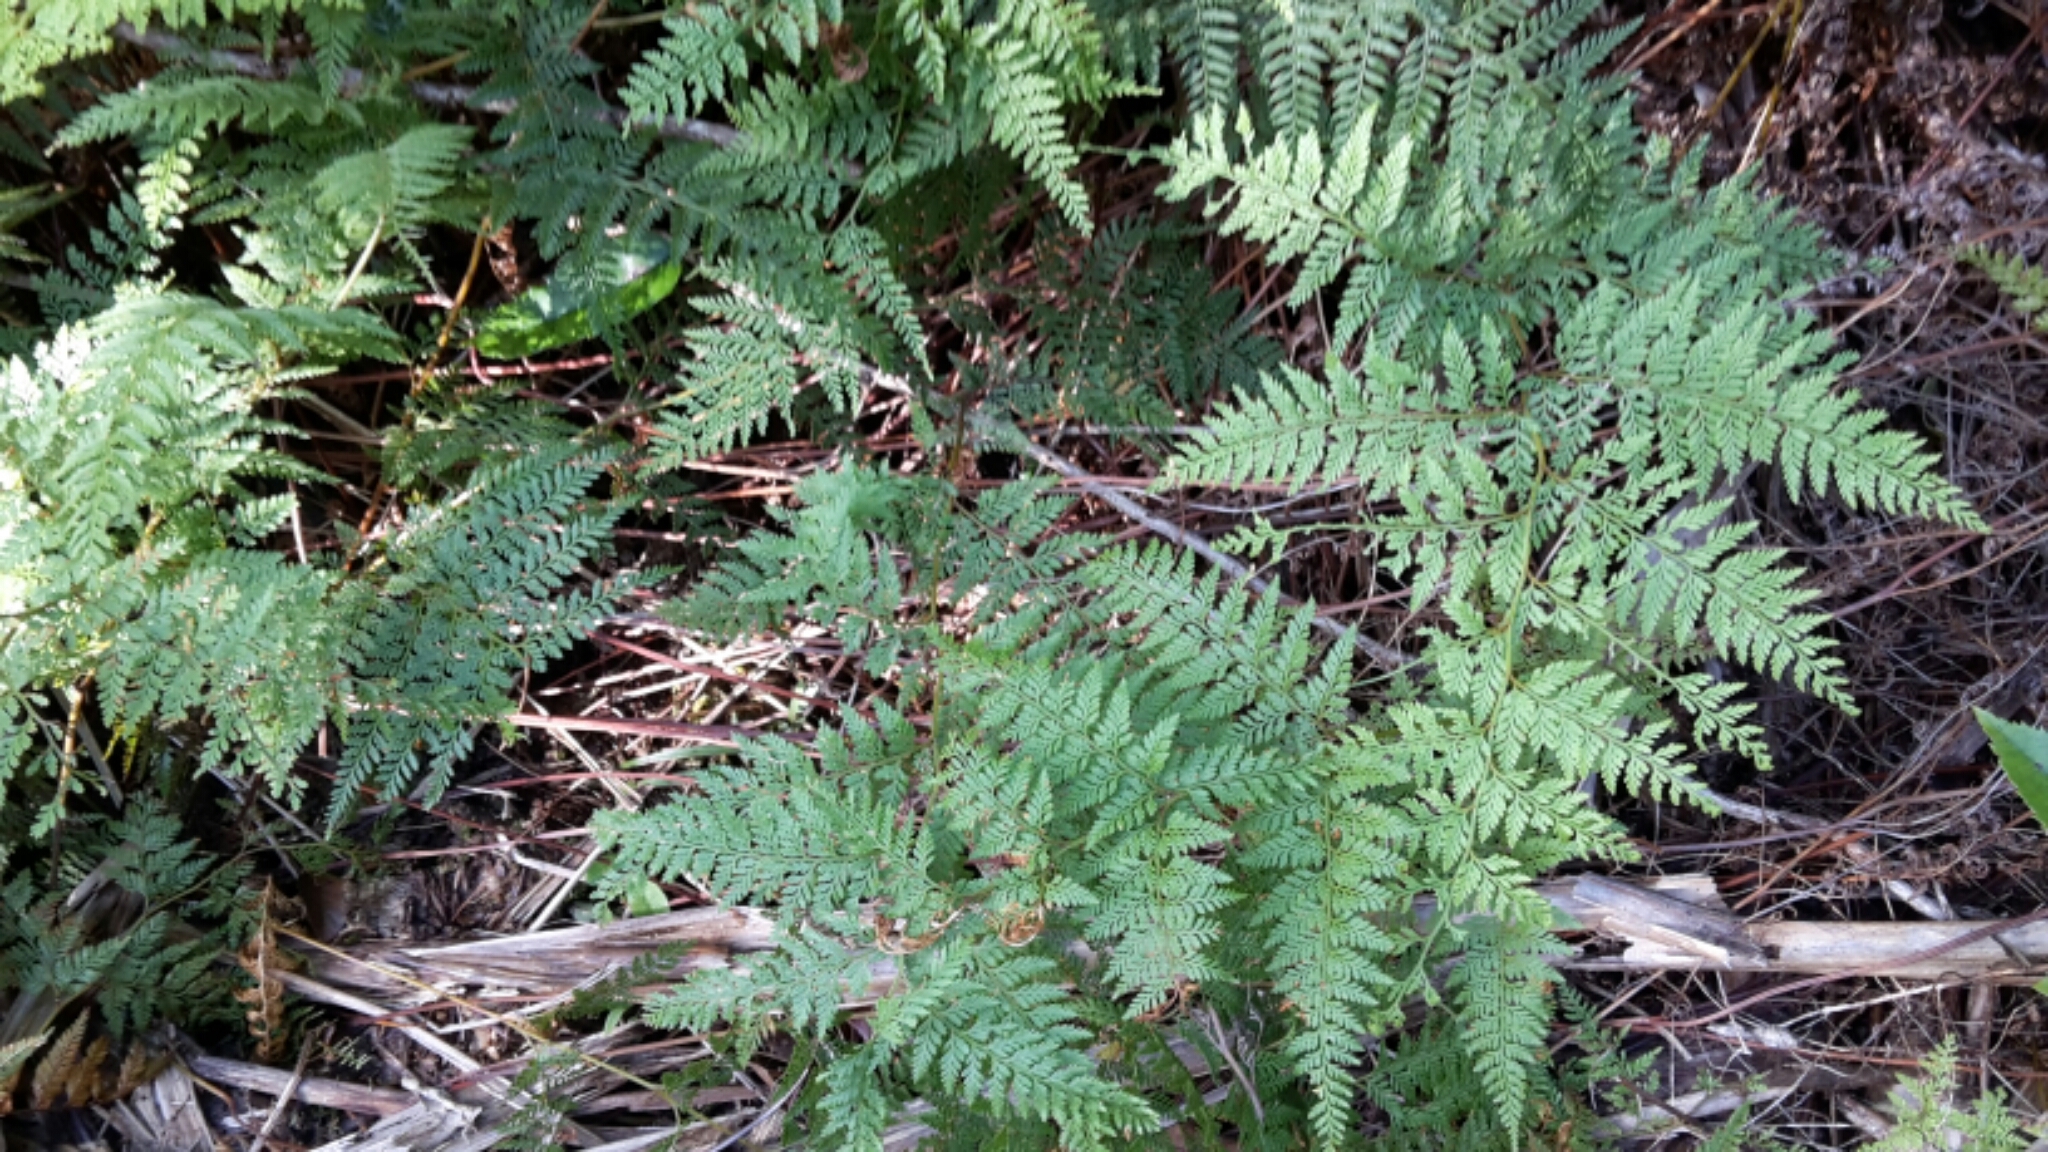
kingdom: Plantae
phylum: Tracheophyta
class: Polypodiopsida
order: Polypodiales
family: Dennstaedtiaceae
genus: Paesia
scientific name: Paesia scaberula
